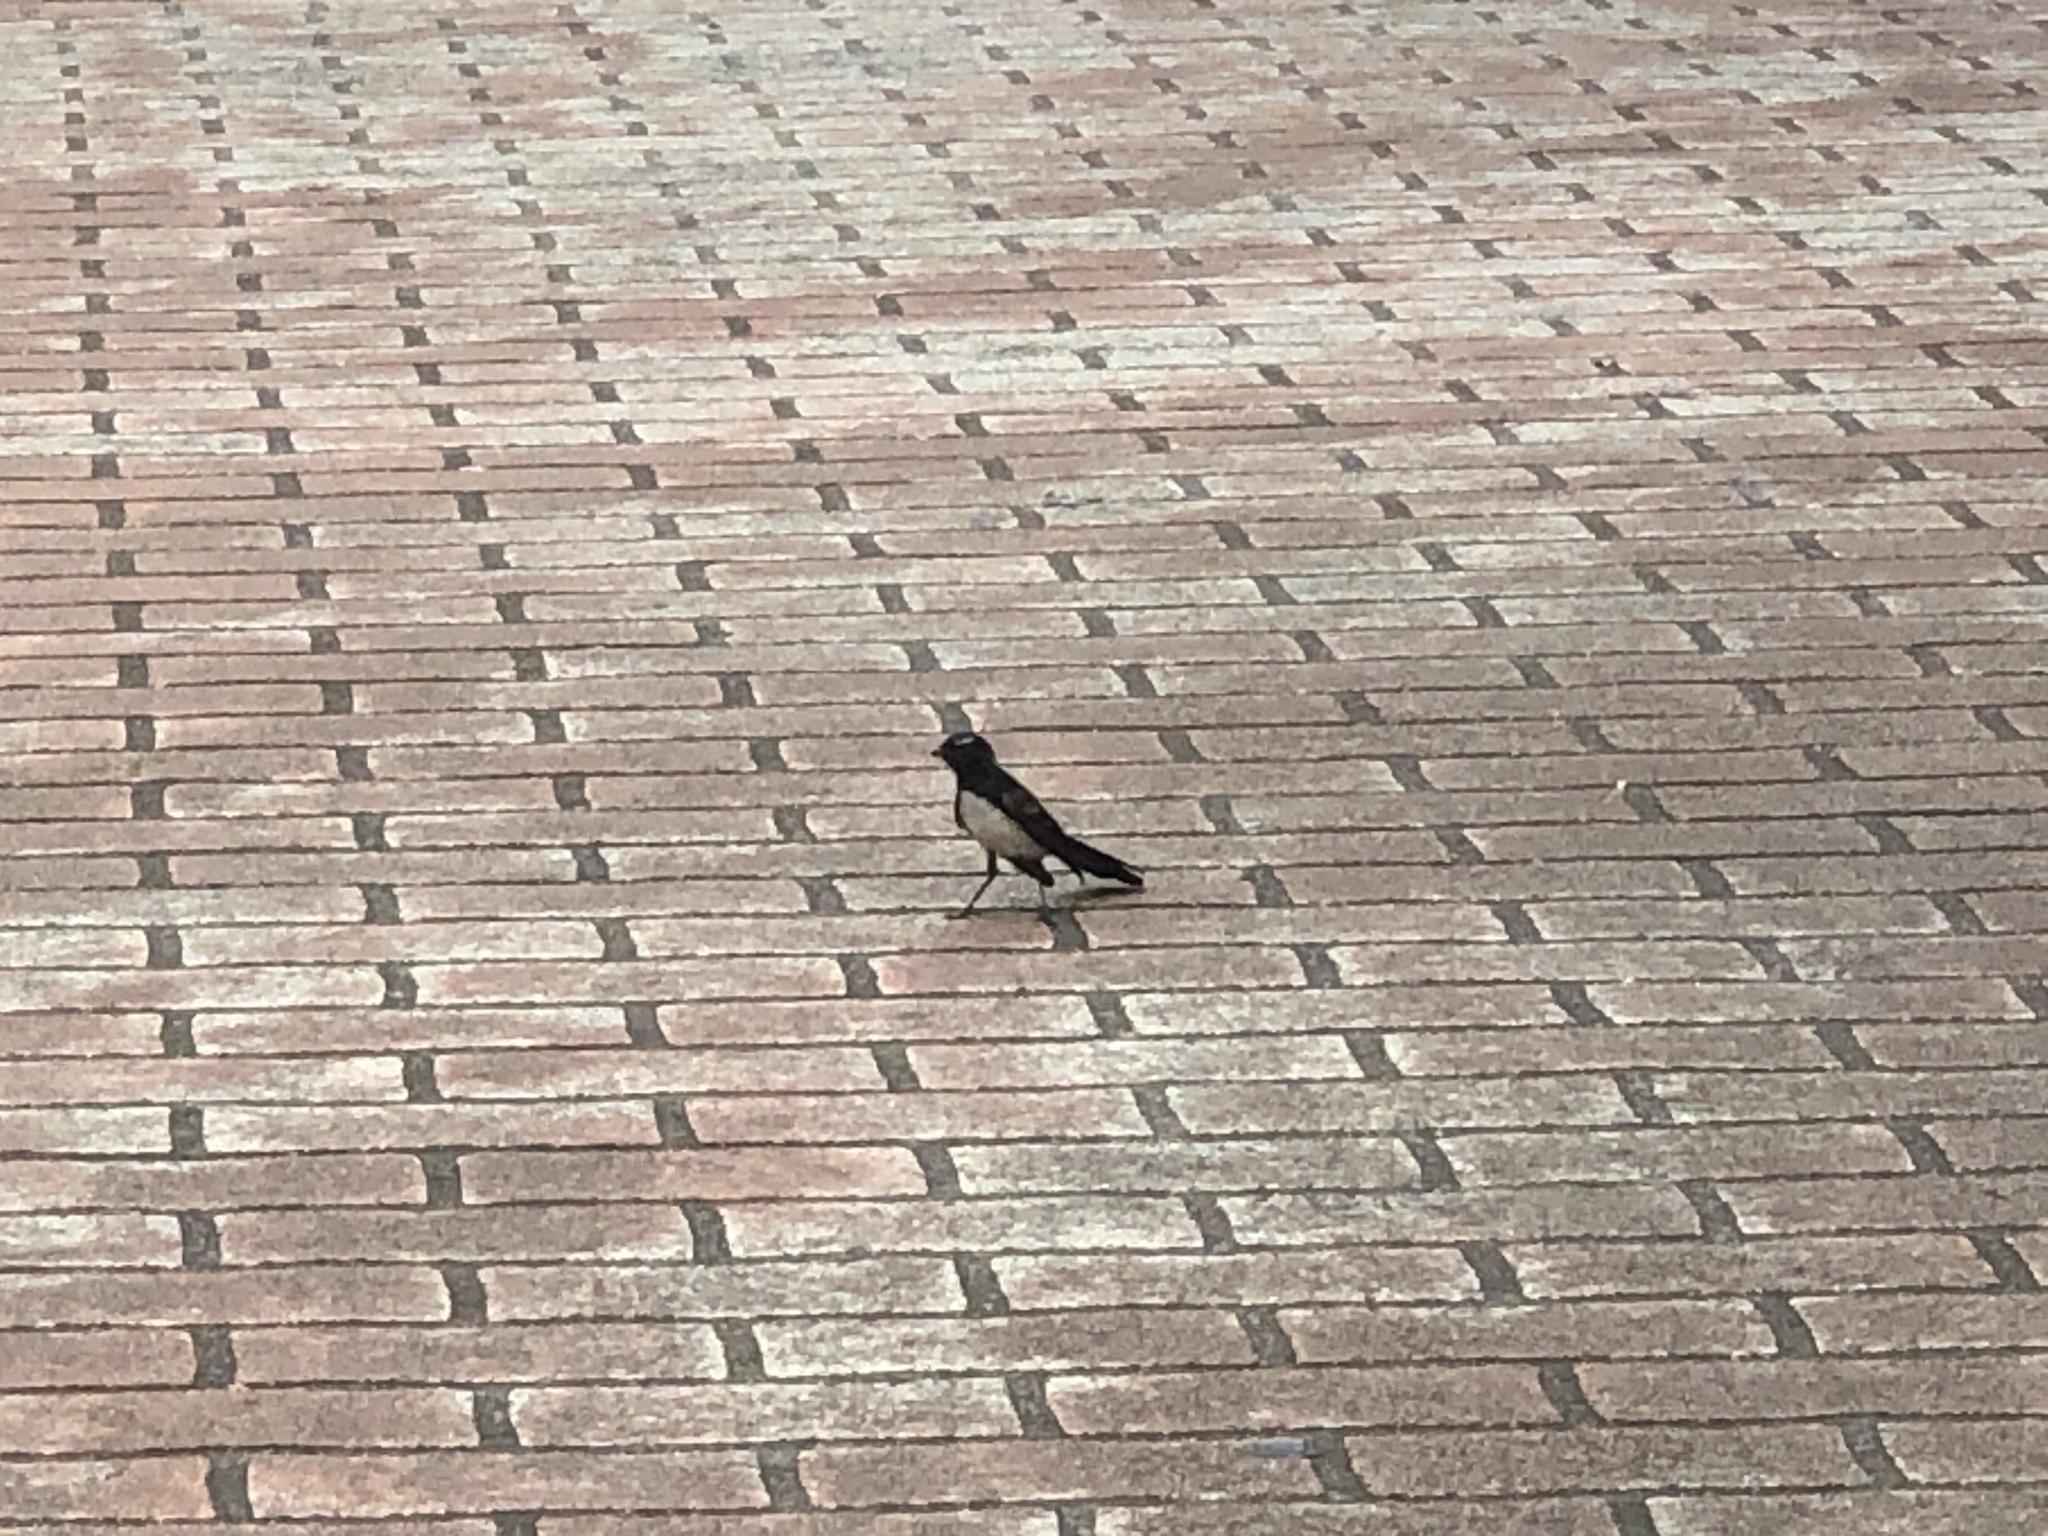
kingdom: Animalia
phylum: Chordata
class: Aves
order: Passeriformes
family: Rhipiduridae
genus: Rhipidura
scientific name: Rhipidura leucophrys
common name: Willie wagtail
